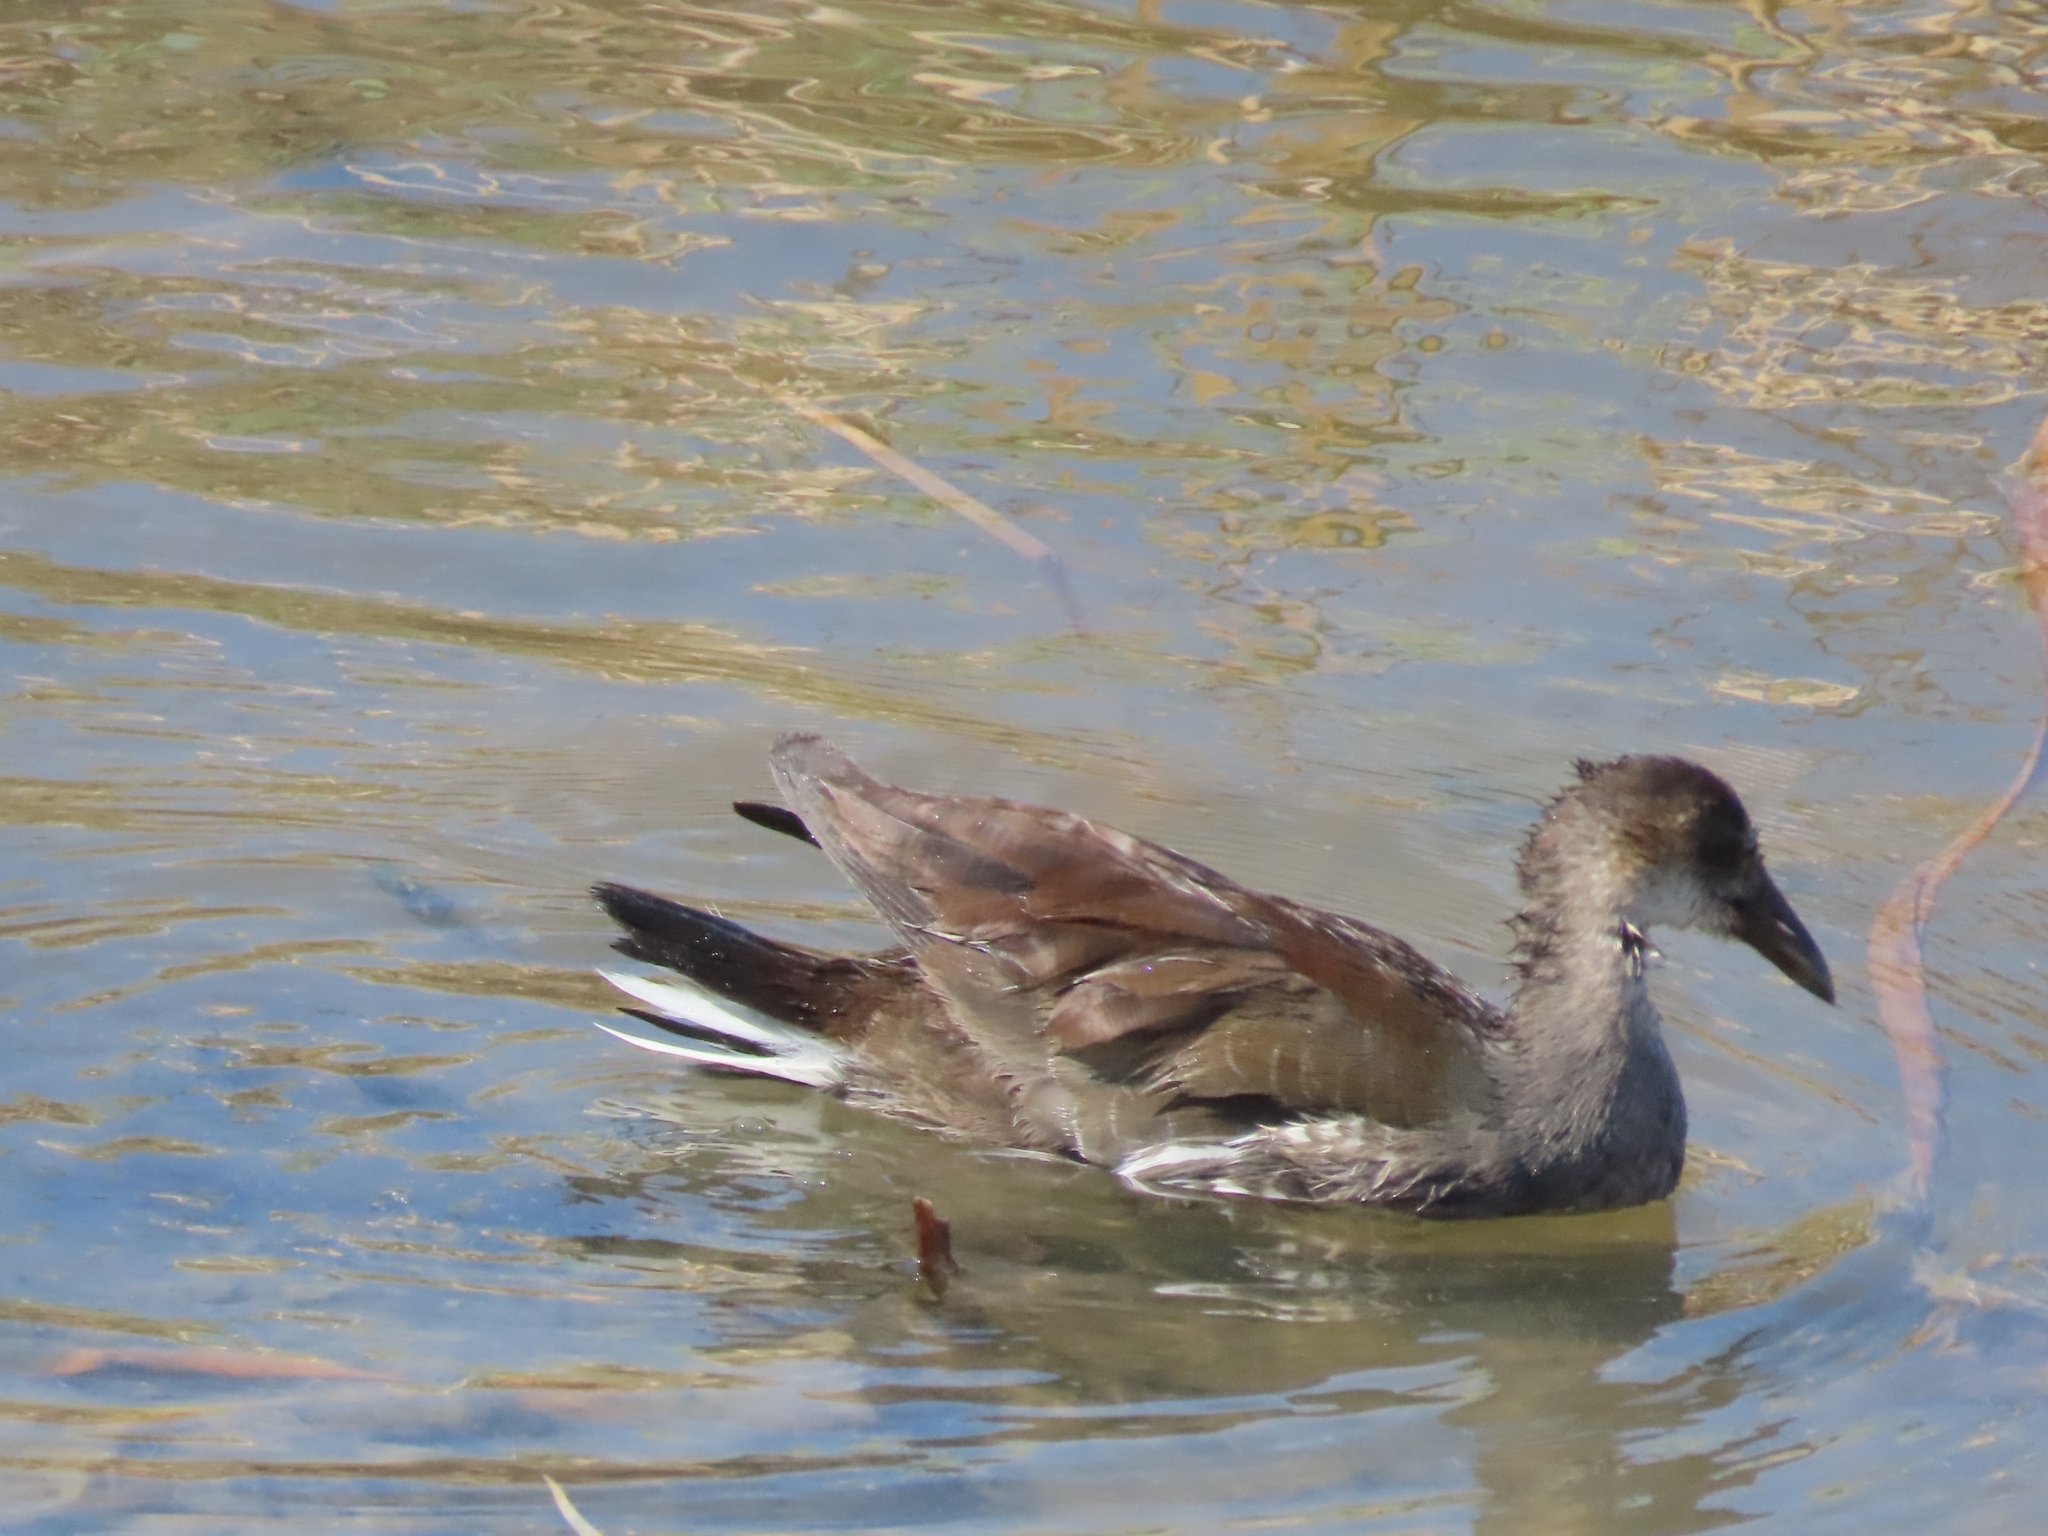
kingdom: Animalia
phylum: Chordata
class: Aves
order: Gruiformes
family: Rallidae
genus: Gallinula
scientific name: Gallinula chloropus
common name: Common moorhen
